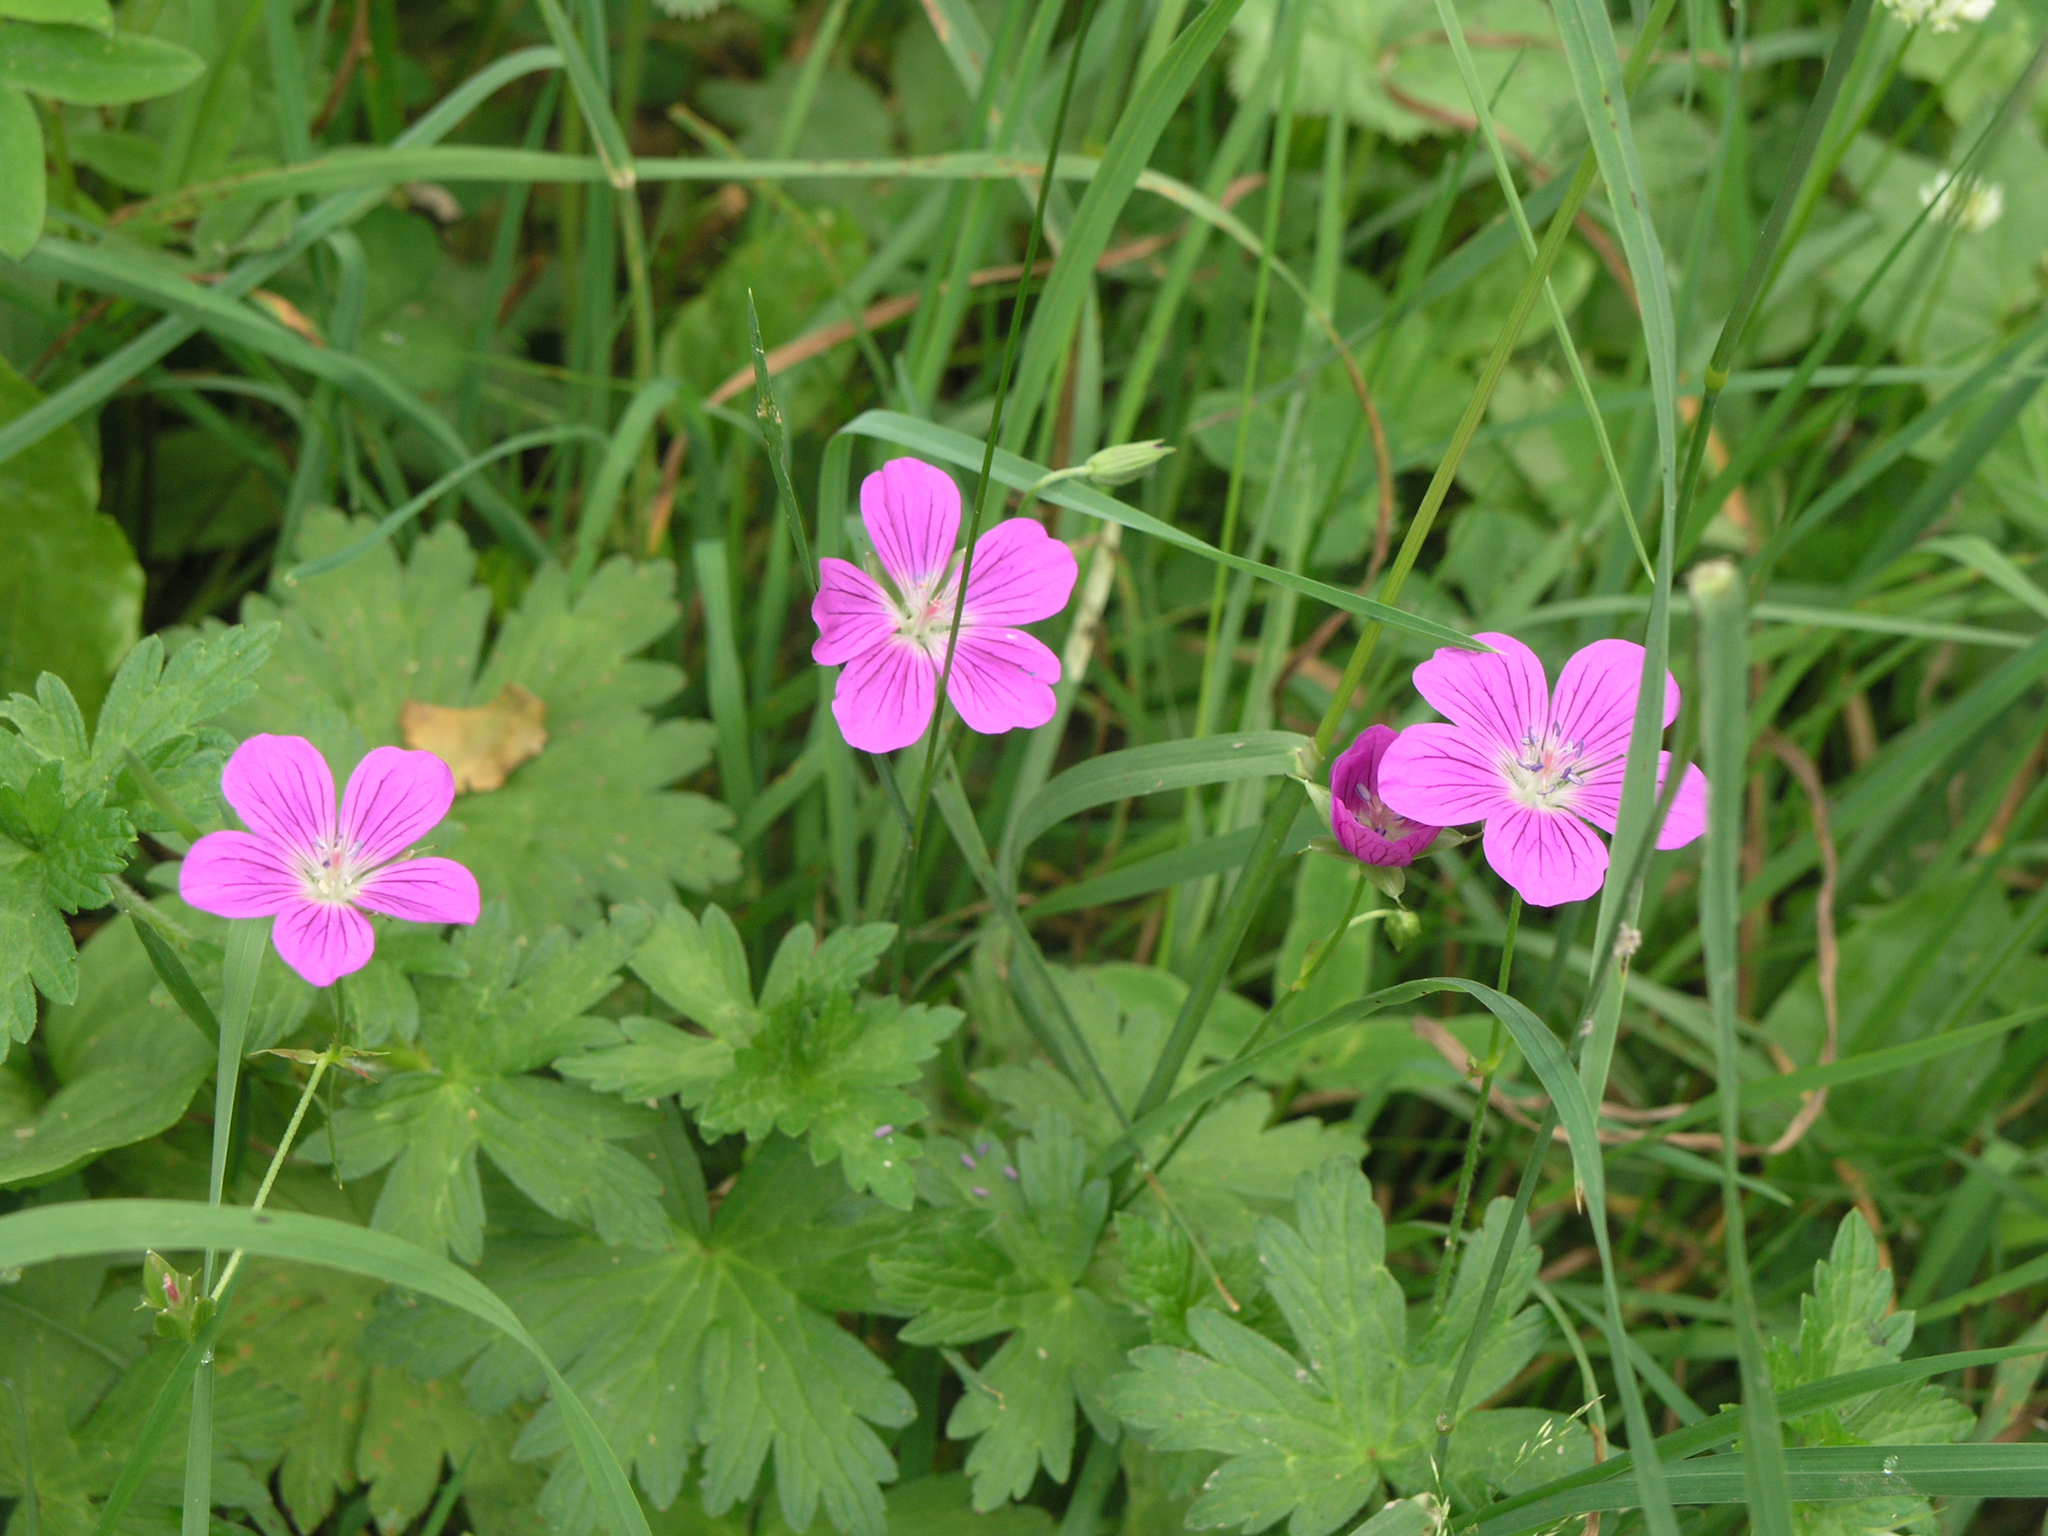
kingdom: Plantae
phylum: Tracheophyta
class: Magnoliopsida
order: Geraniales
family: Geraniaceae
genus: Geranium
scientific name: Geranium palustre
